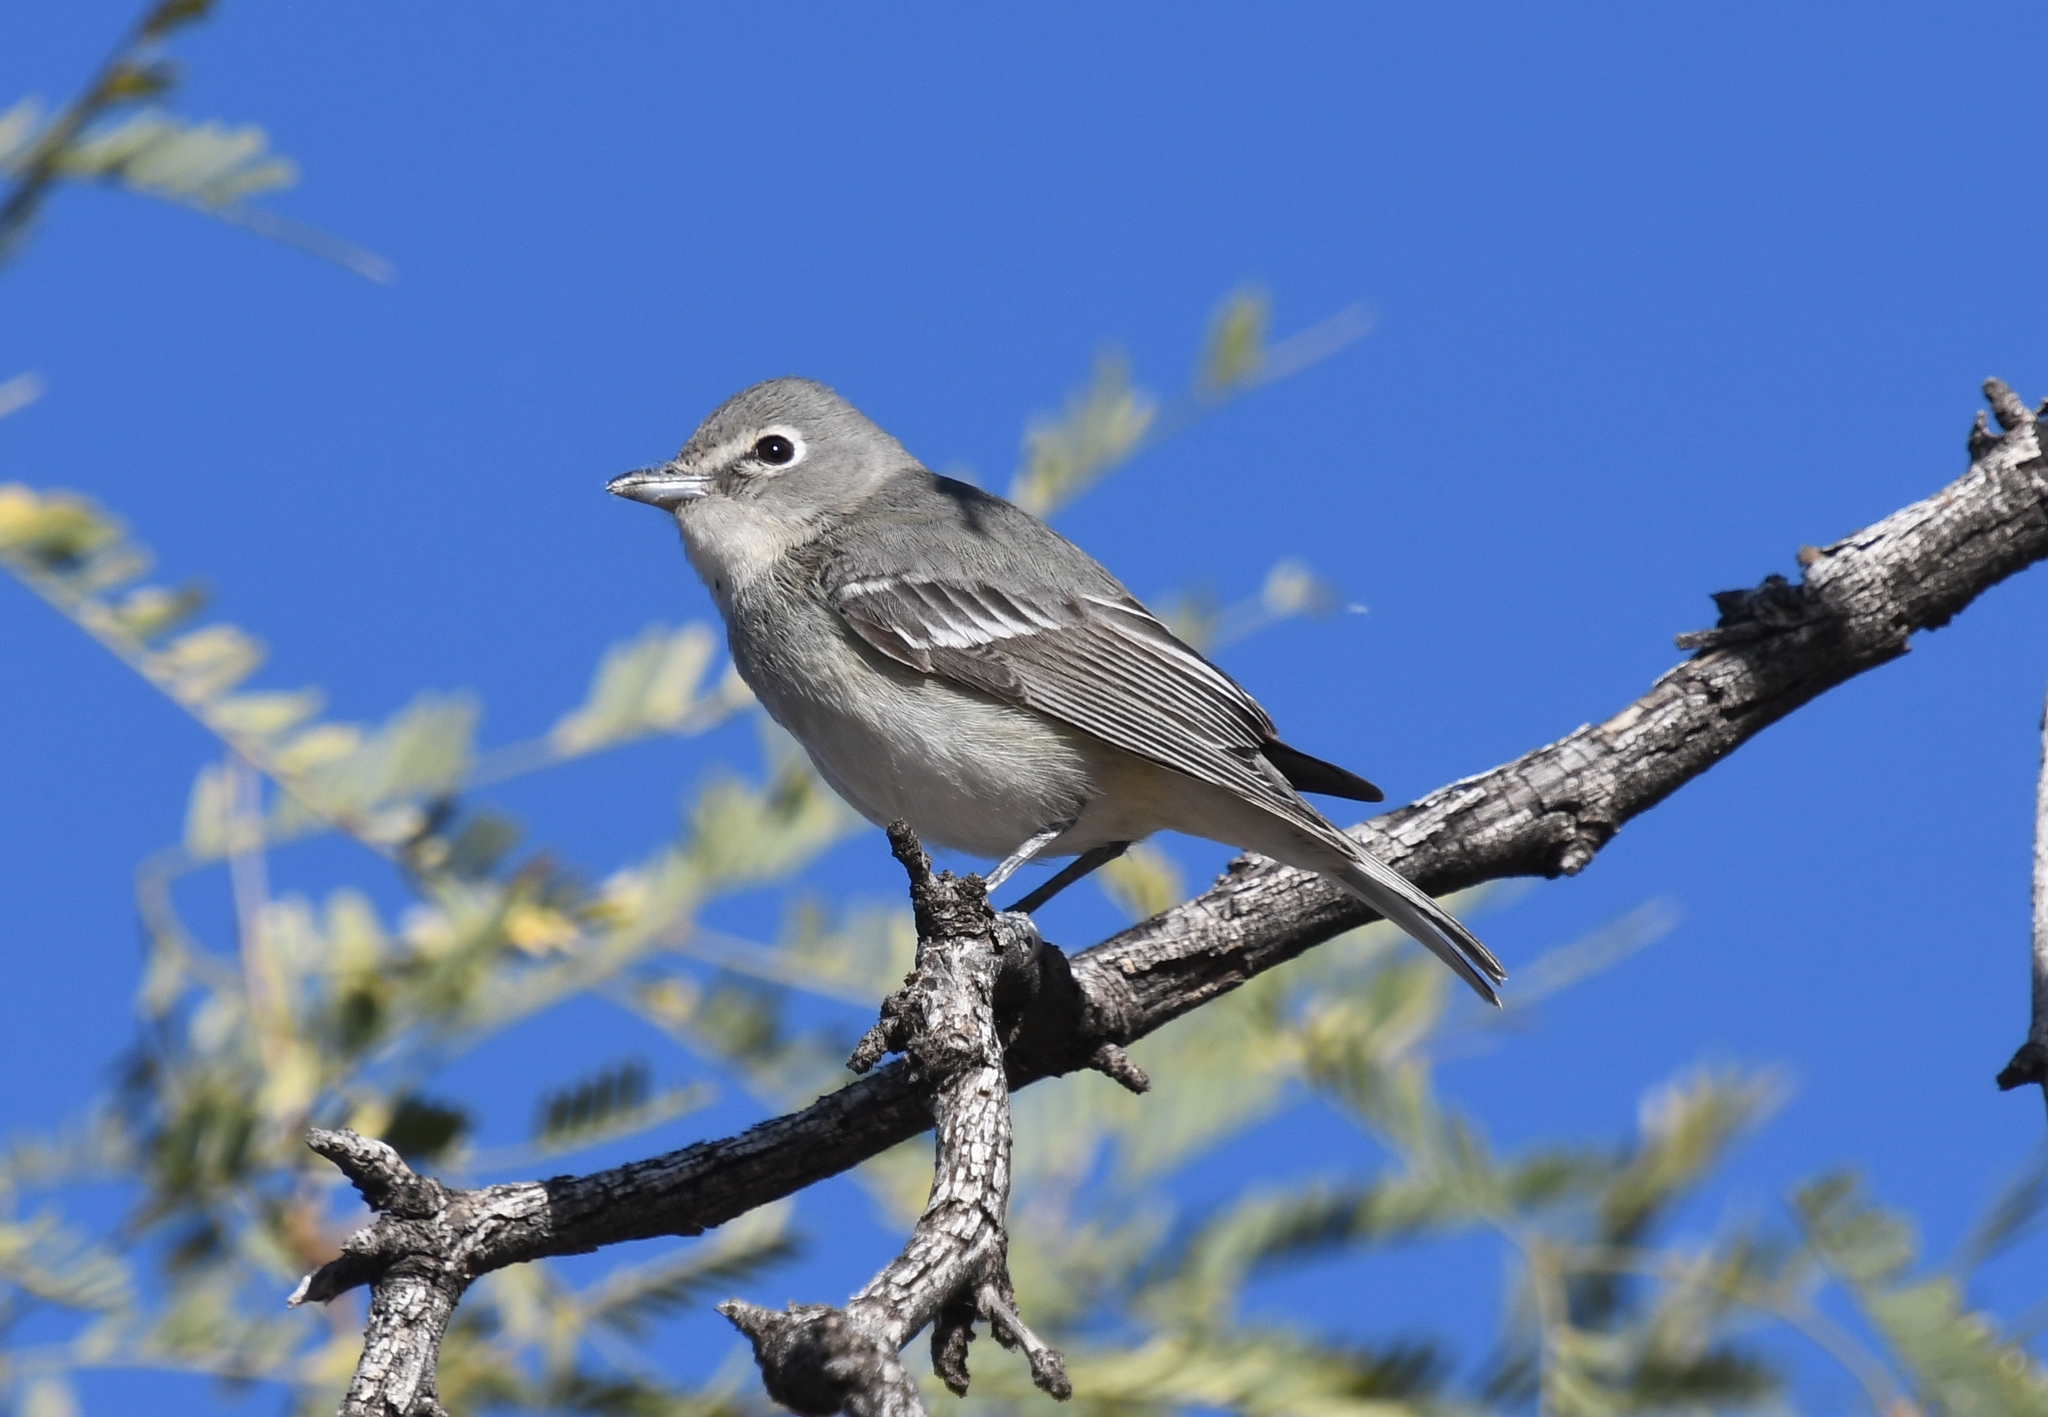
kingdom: Animalia
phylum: Chordata
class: Aves
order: Passeriformes
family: Vireonidae
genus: Vireo
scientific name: Vireo plumbeus
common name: Plumbeous vireo
